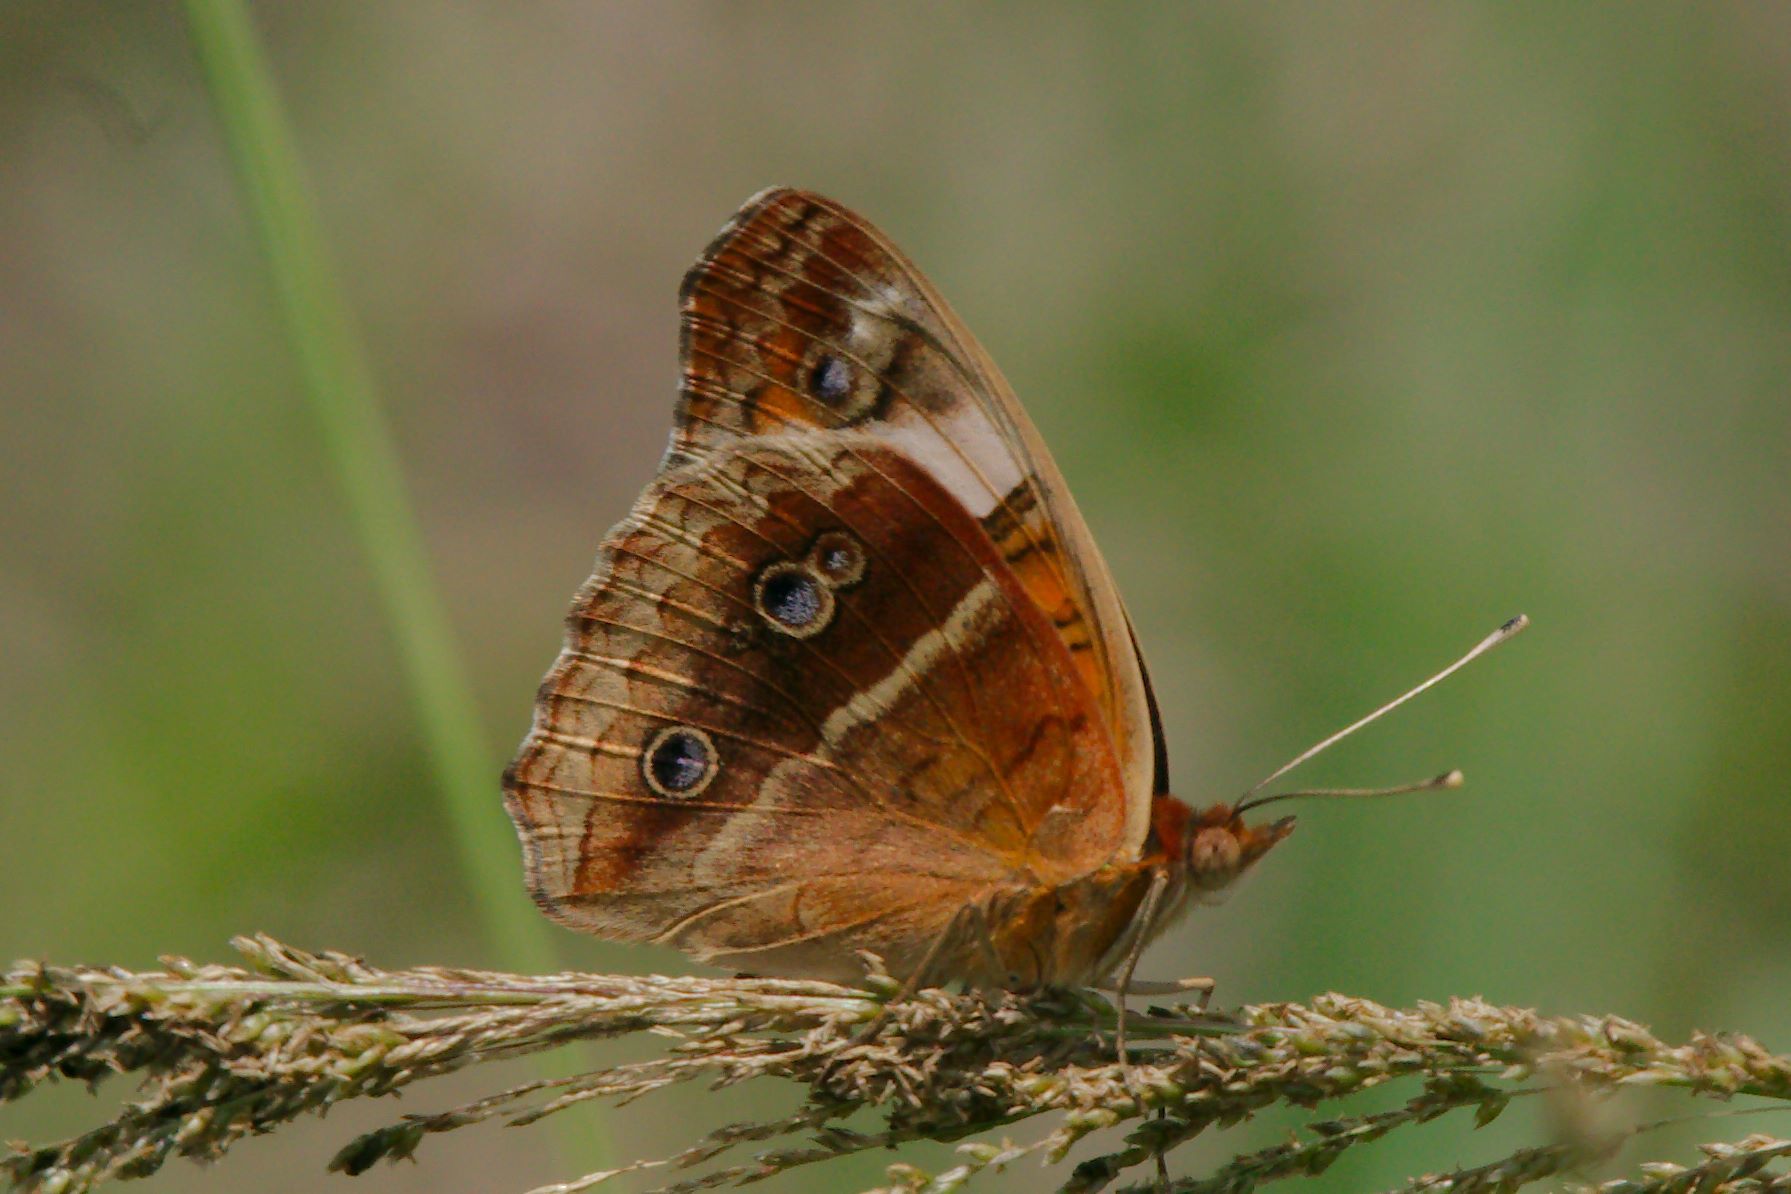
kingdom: Animalia
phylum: Arthropoda
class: Insecta
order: Lepidoptera
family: Nymphalidae
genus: Junonia
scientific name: Junonia lavinia
